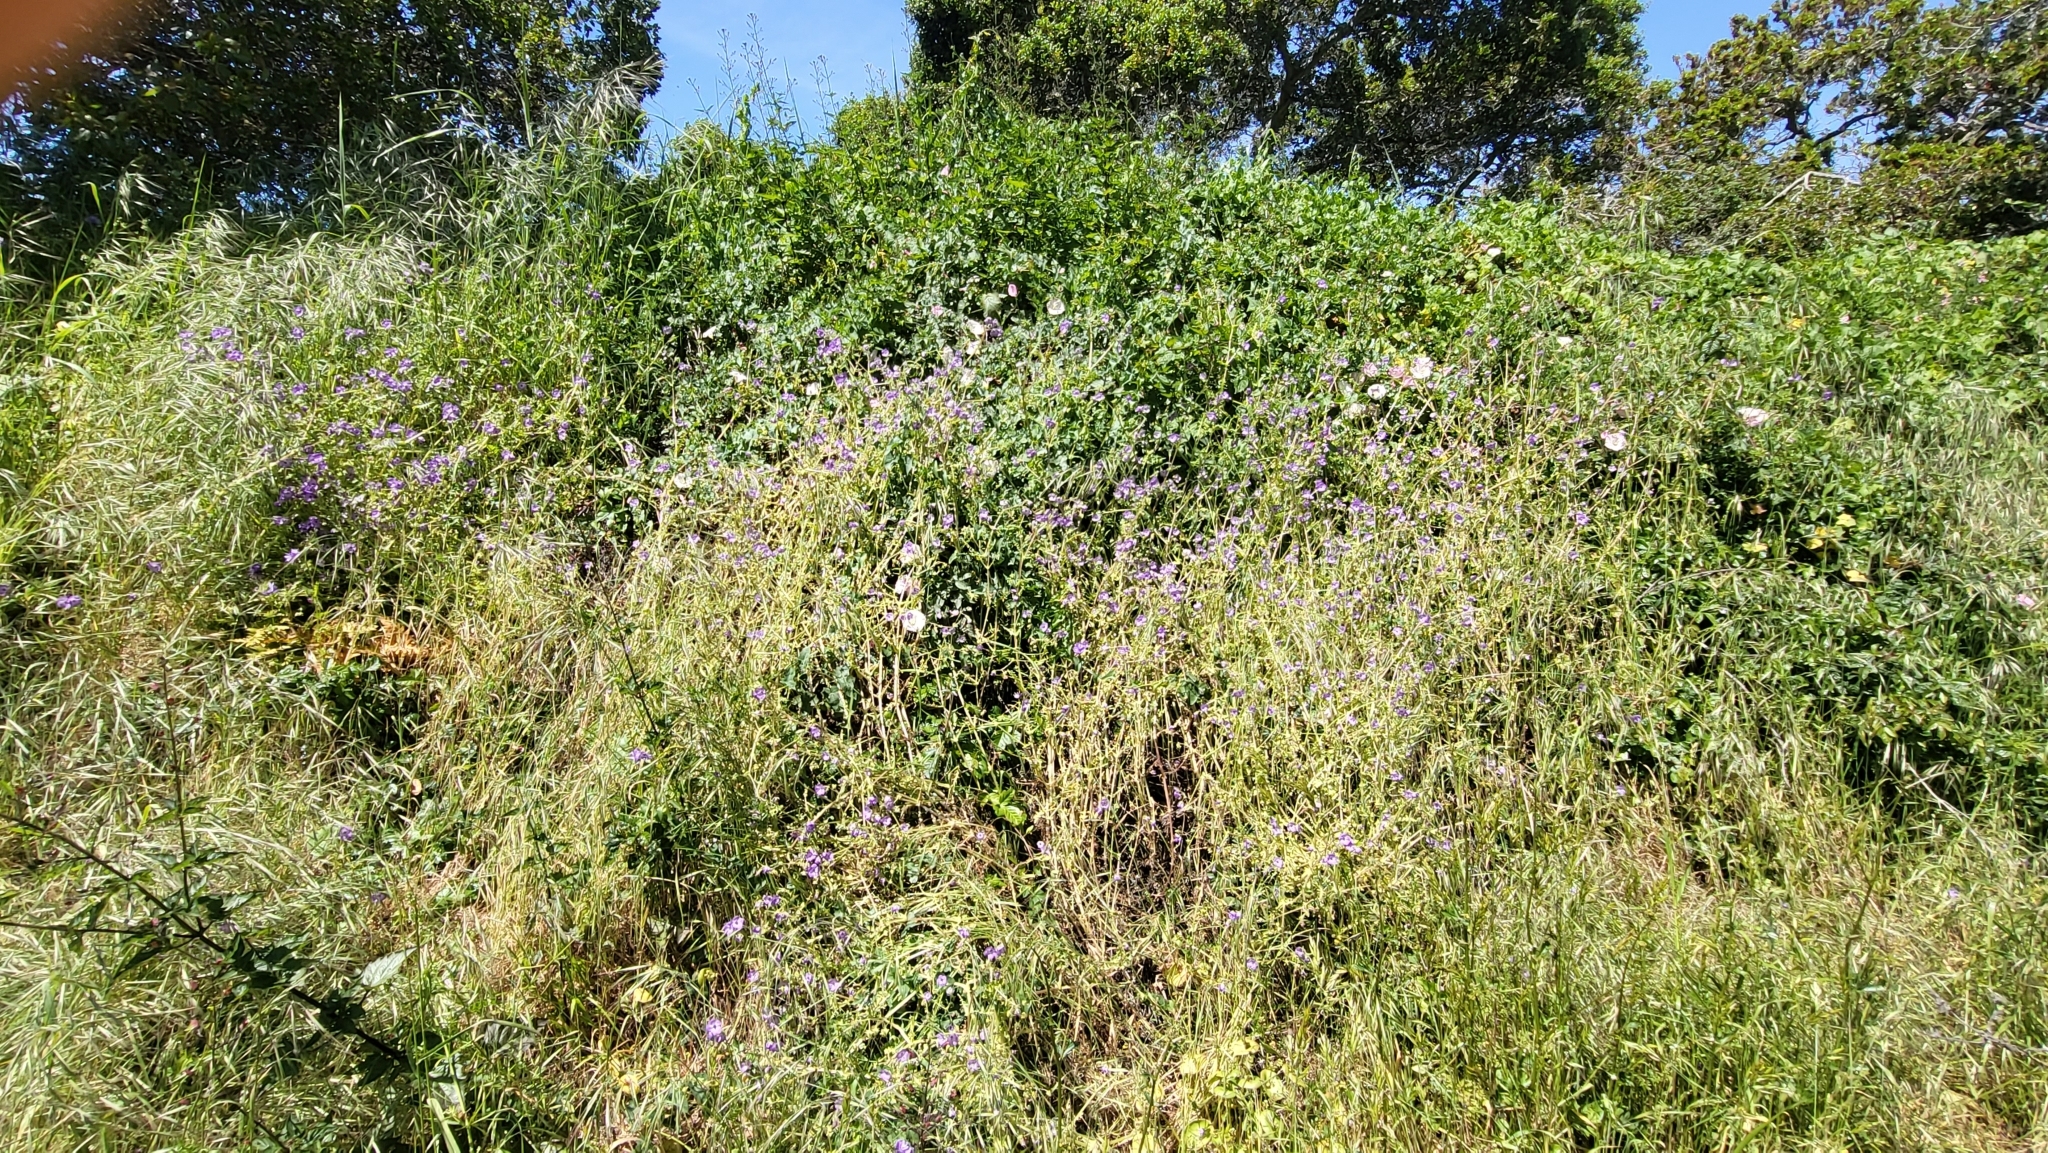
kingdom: Plantae
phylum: Tracheophyta
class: Magnoliopsida
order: Boraginales
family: Hydrophyllaceae
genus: Pholistoma
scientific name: Pholistoma auritum
